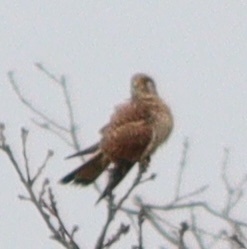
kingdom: Animalia
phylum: Chordata
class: Aves
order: Falconiformes
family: Falconidae
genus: Falco
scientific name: Falco tinnunculus
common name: Common kestrel
